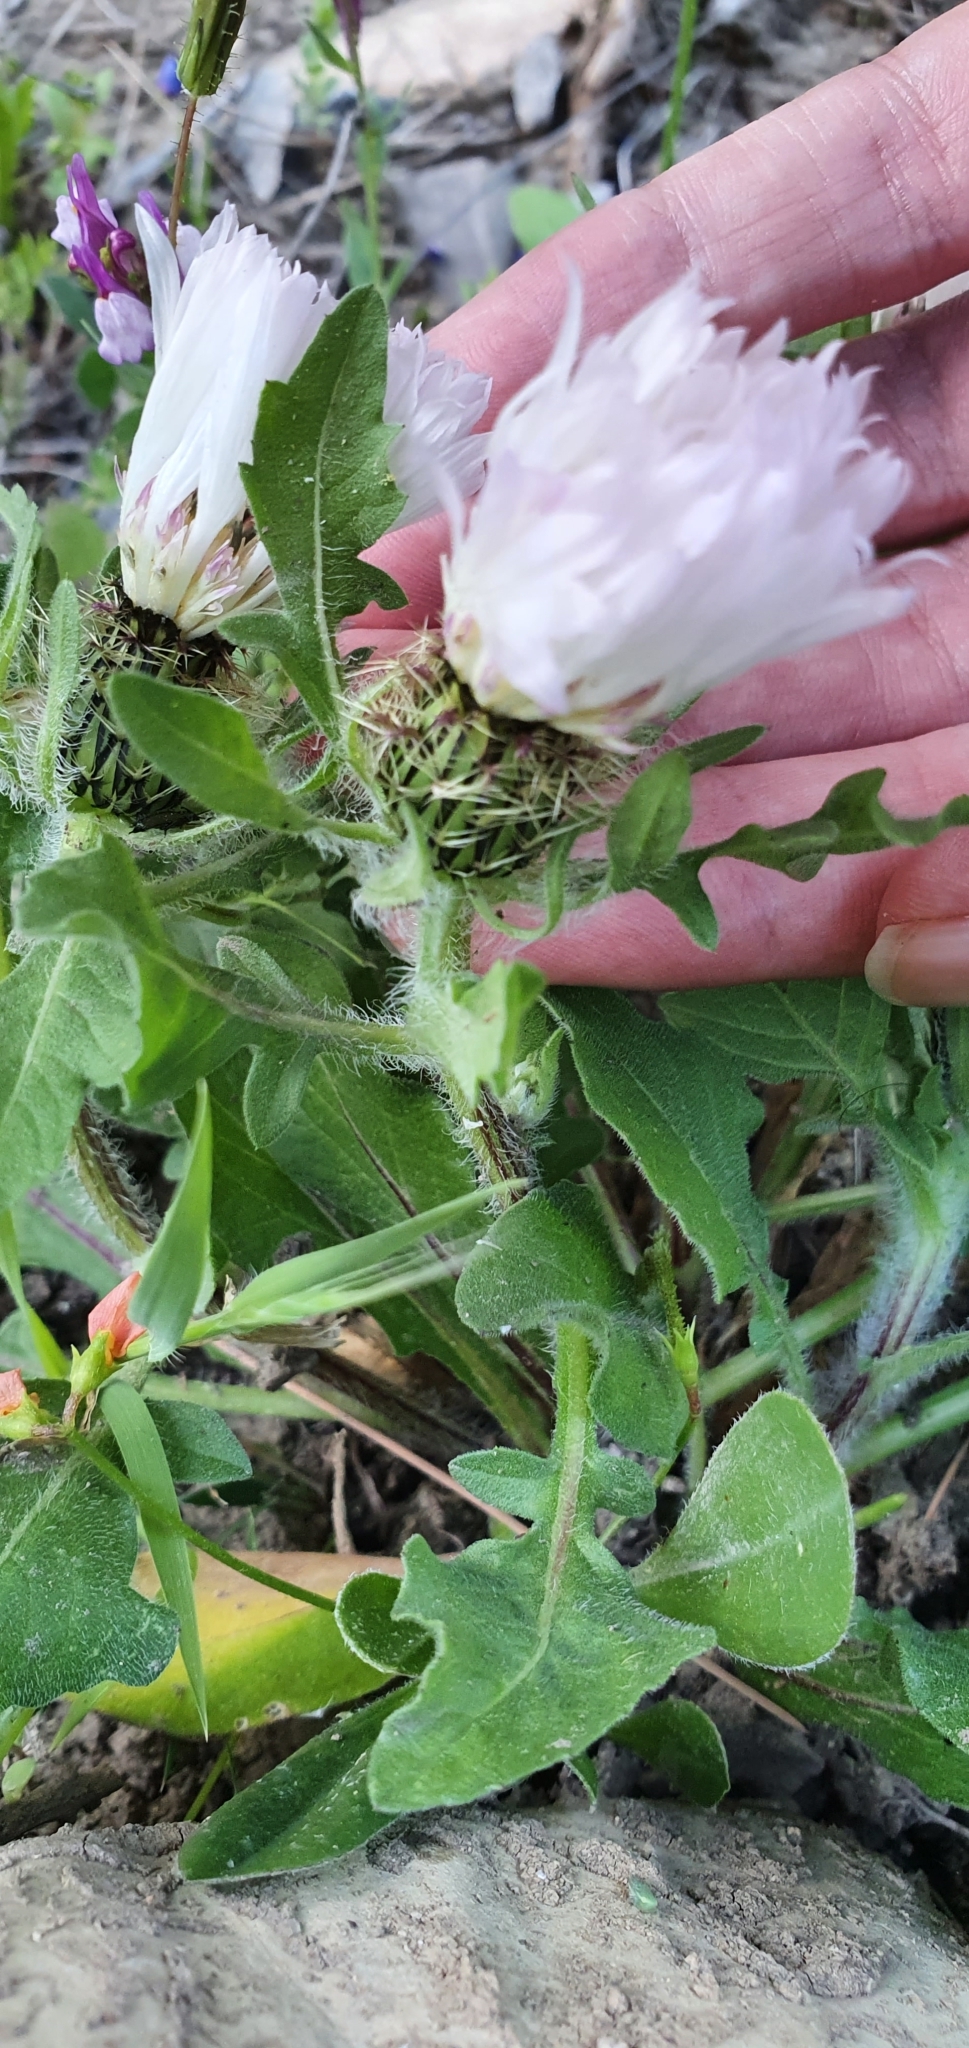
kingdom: Plantae
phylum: Tracheophyta
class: Magnoliopsida
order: Asterales
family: Asteraceae
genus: Centaurea
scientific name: Centaurea pullata
